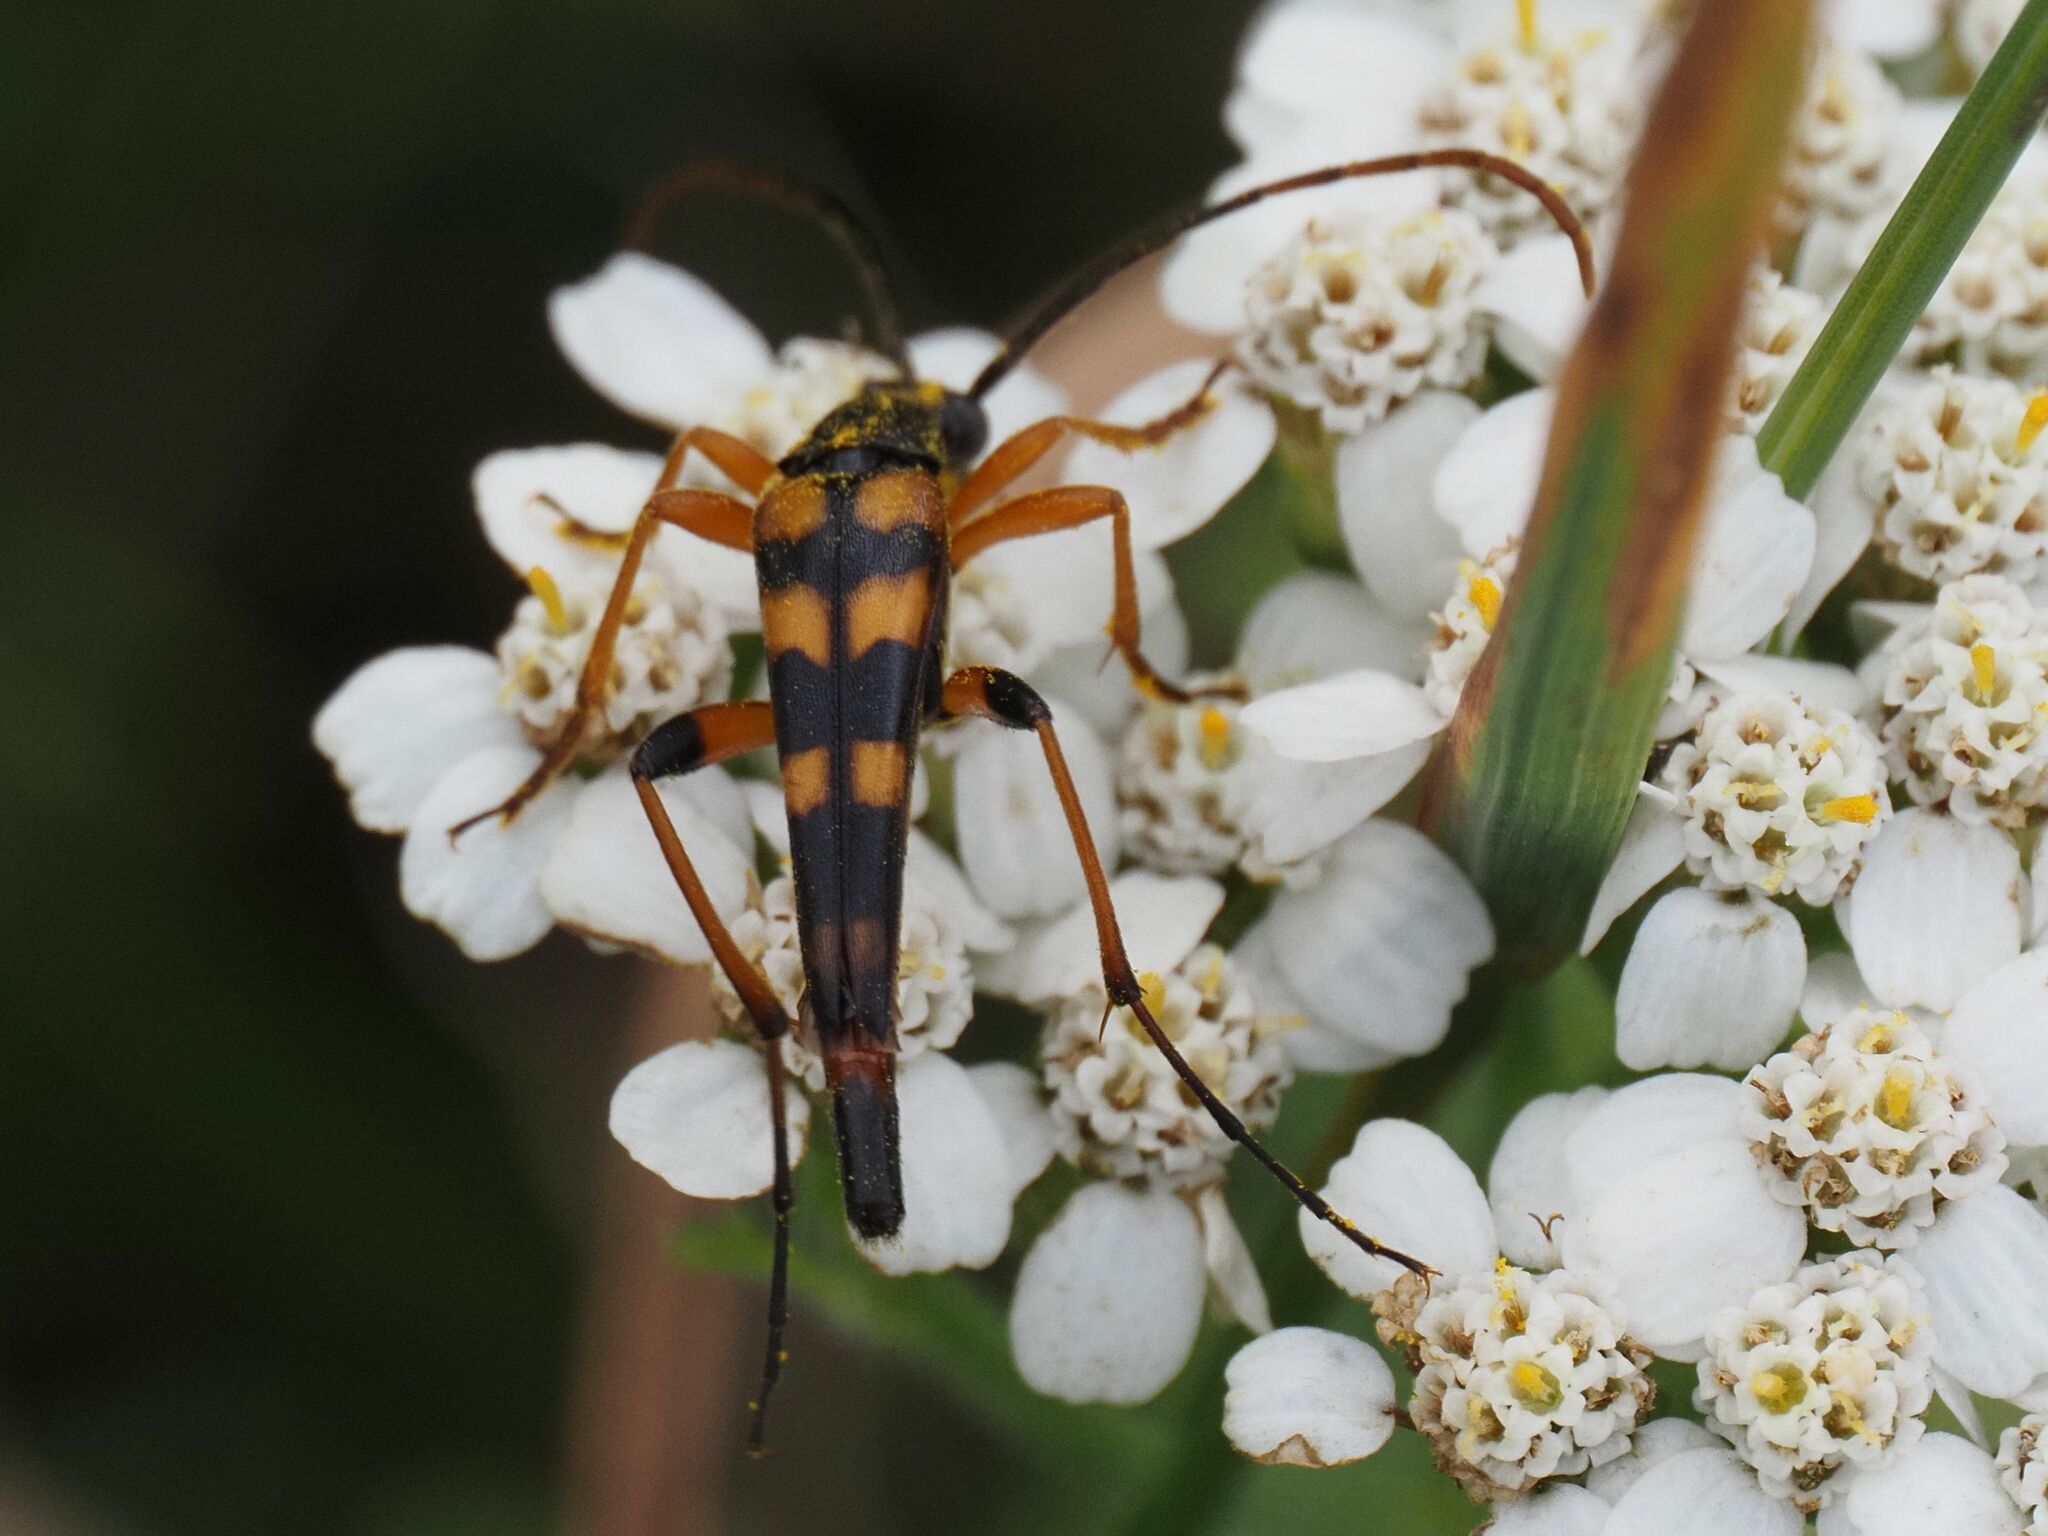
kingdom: Animalia
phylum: Arthropoda
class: Insecta
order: Coleoptera
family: Cerambycidae
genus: Strangalia
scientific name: Strangalia attenuata
